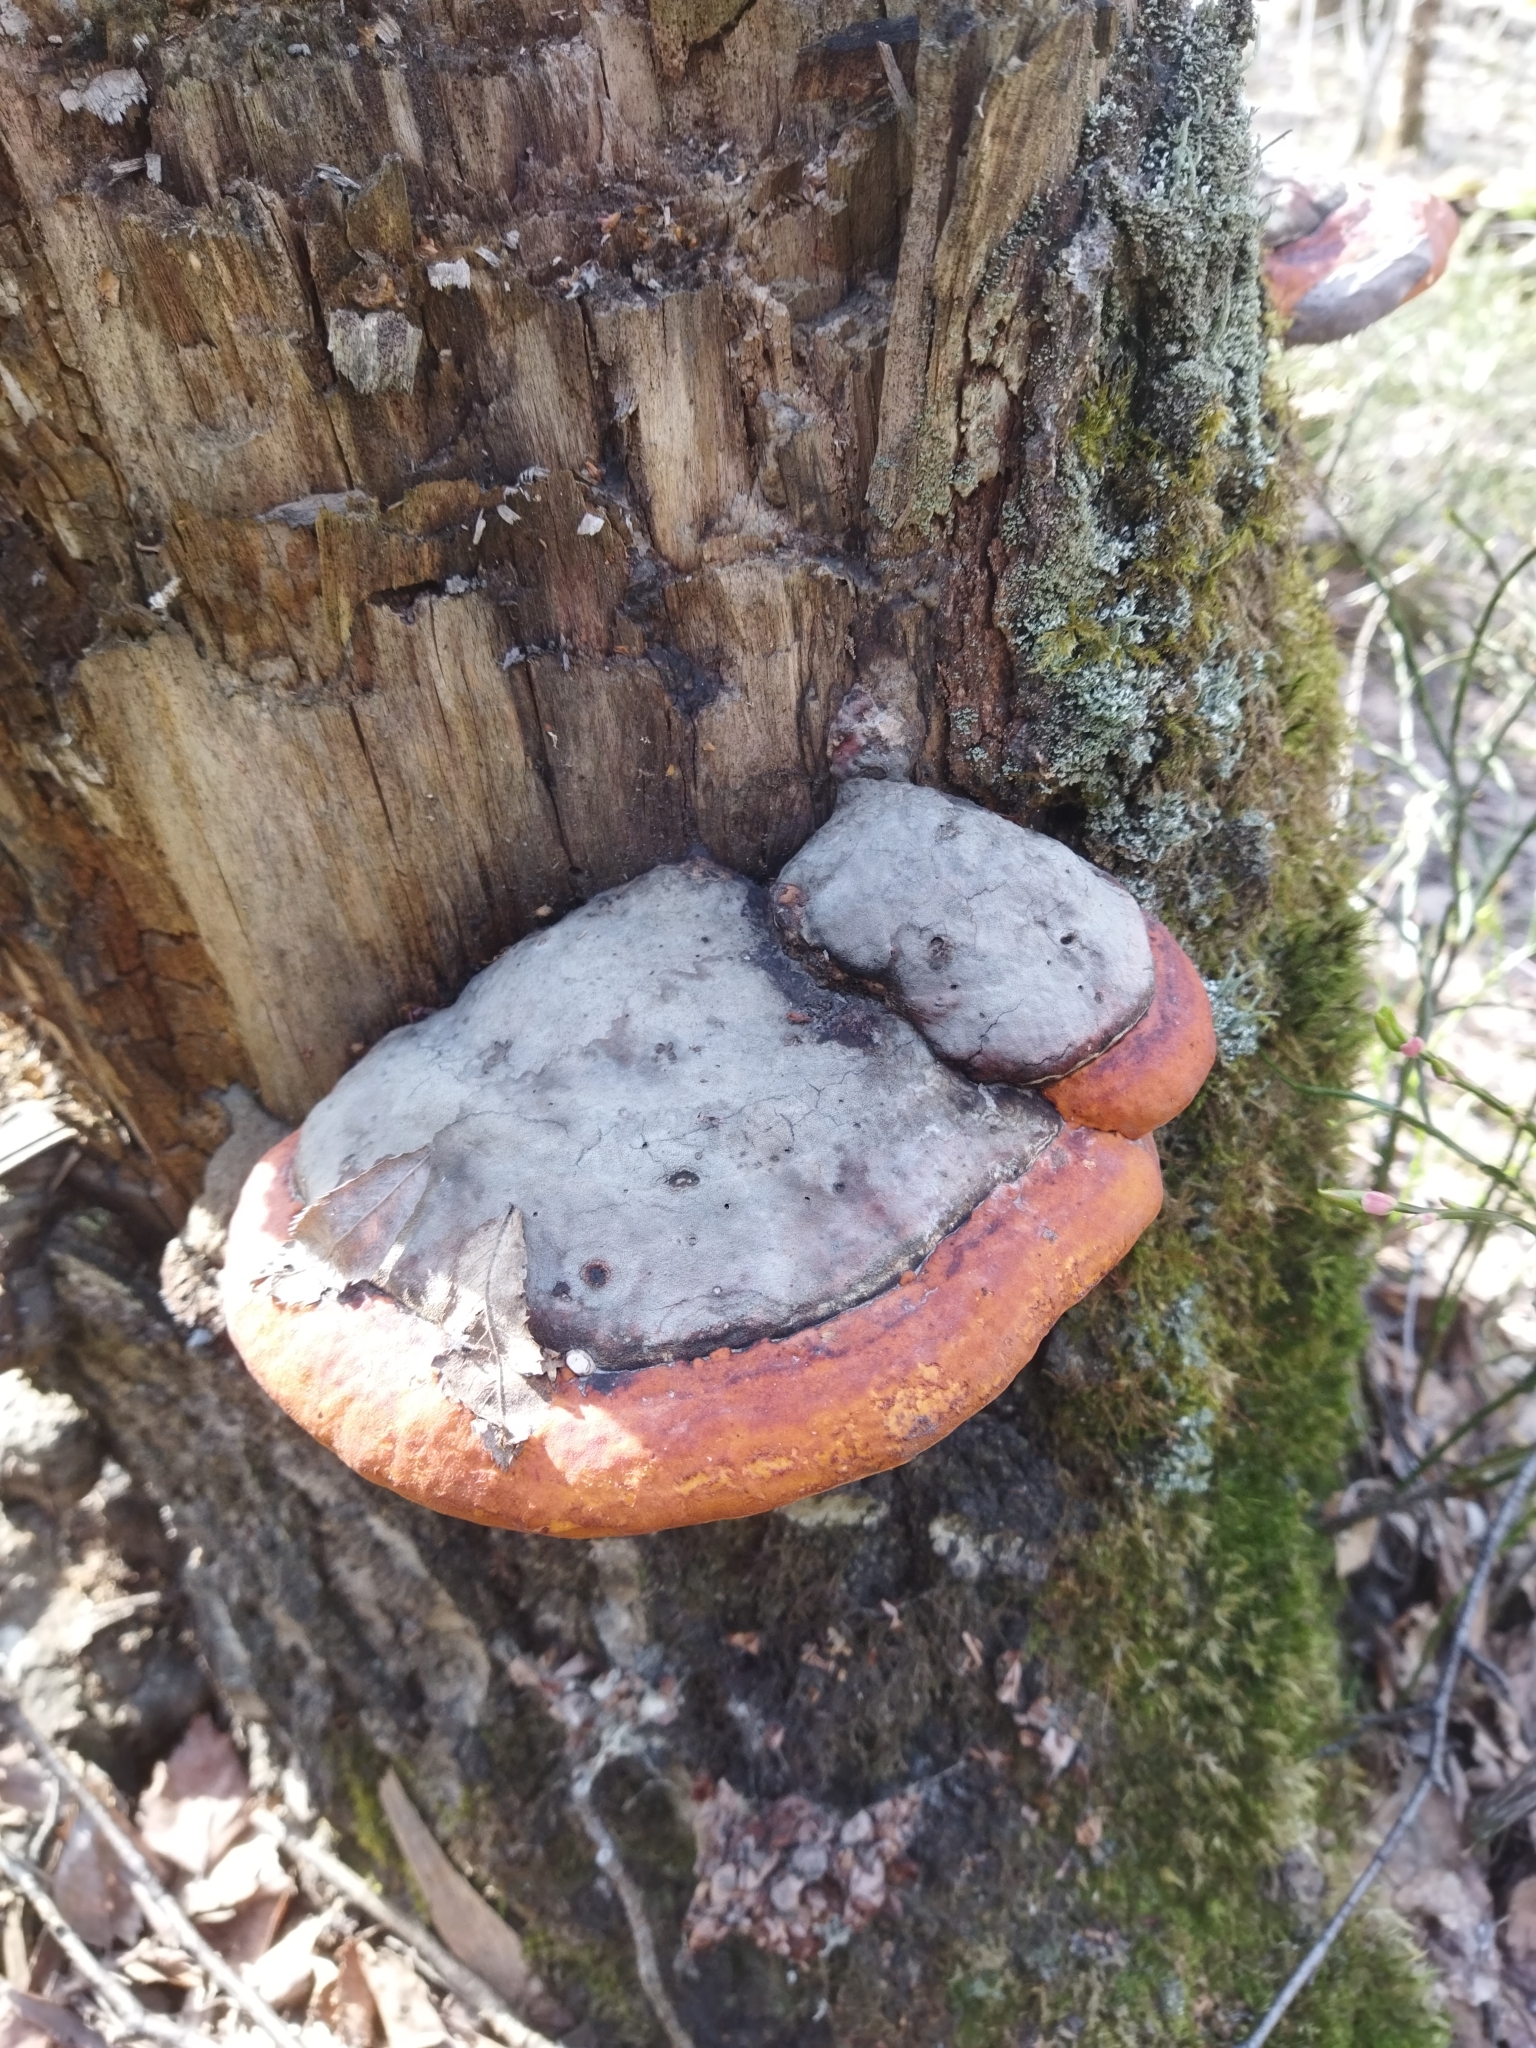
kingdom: Fungi
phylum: Basidiomycota
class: Agaricomycetes
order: Polyporales
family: Fomitopsidaceae
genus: Fomitopsis
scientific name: Fomitopsis pinicola
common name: Red-belted bracket
